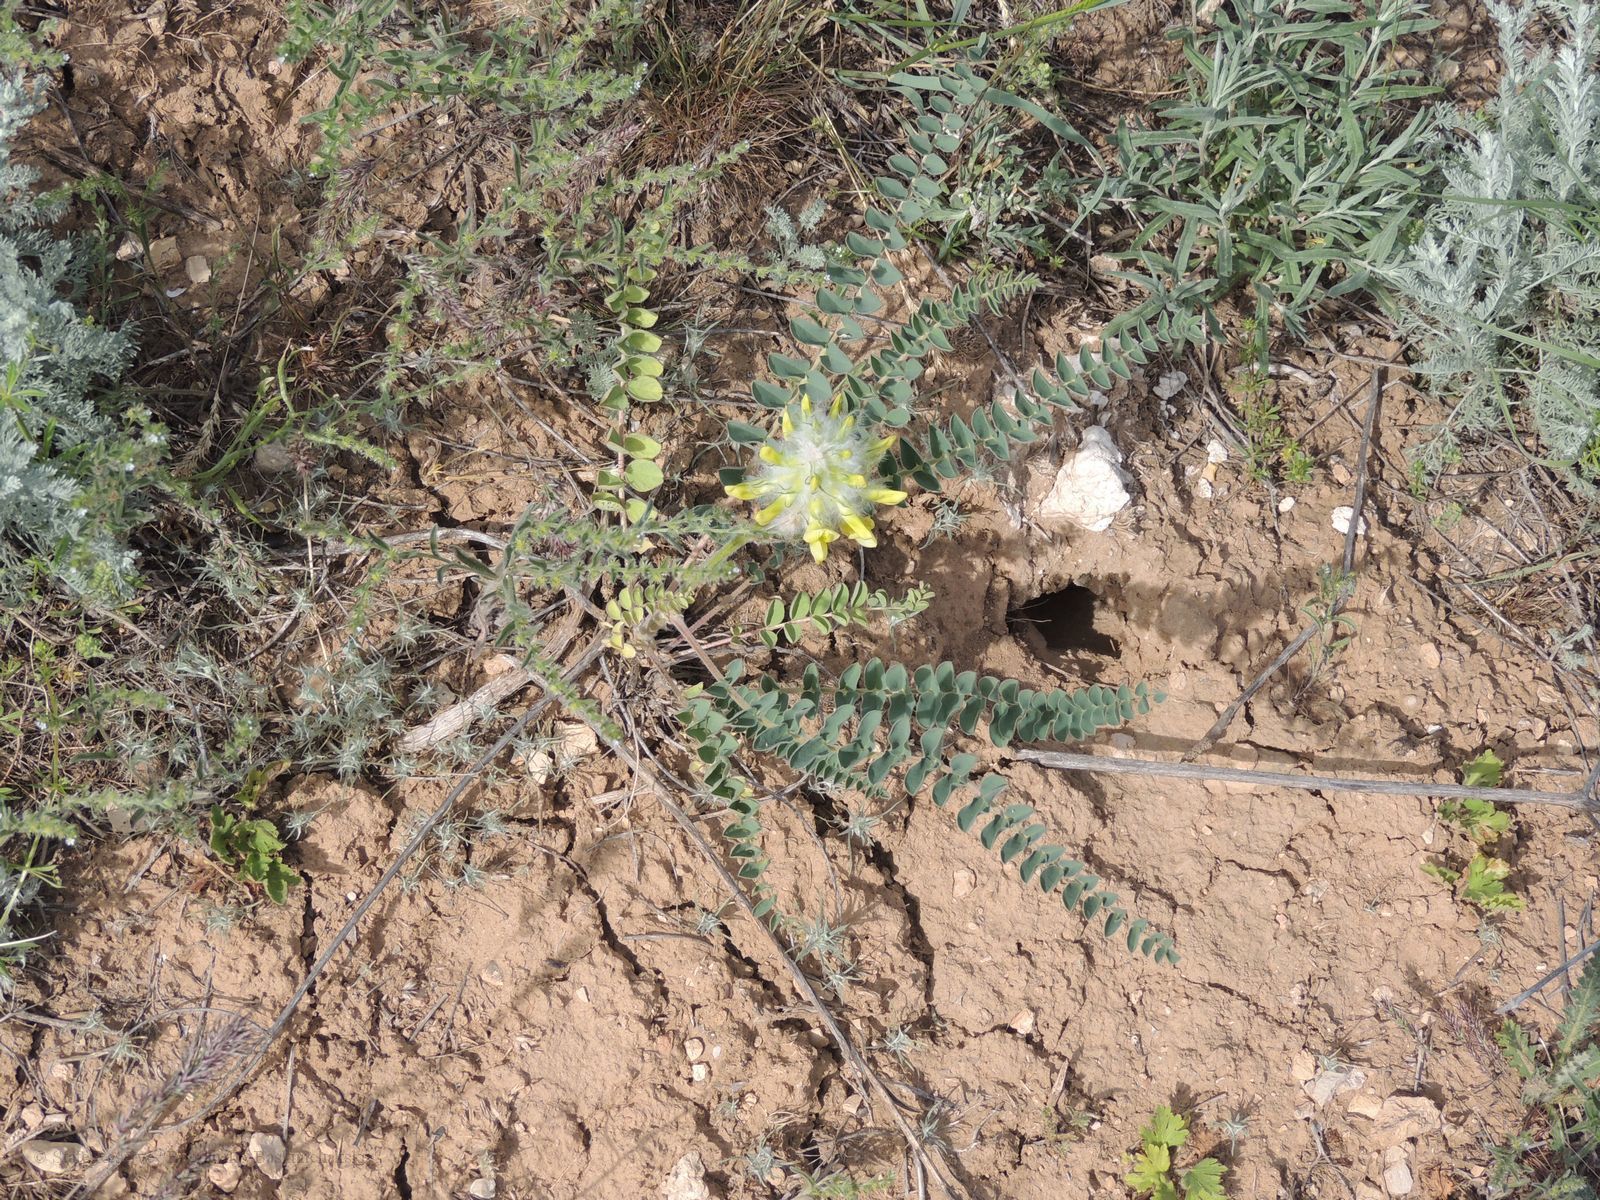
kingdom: Plantae
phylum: Tracheophyta
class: Magnoliopsida
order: Fabales
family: Fabaceae
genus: Astragalus
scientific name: Astragalus vulpinus
